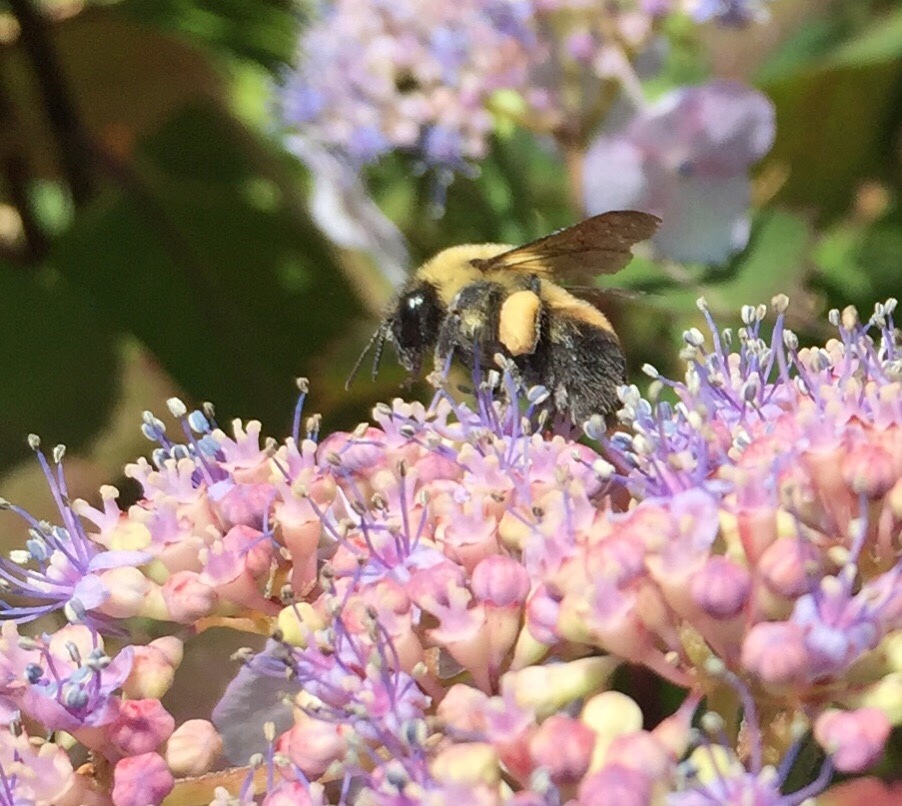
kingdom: Animalia
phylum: Arthropoda
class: Insecta
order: Hymenoptera
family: Apidae
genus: Bombus
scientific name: Bombus griseocollis
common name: Brown-belted bumble bee
